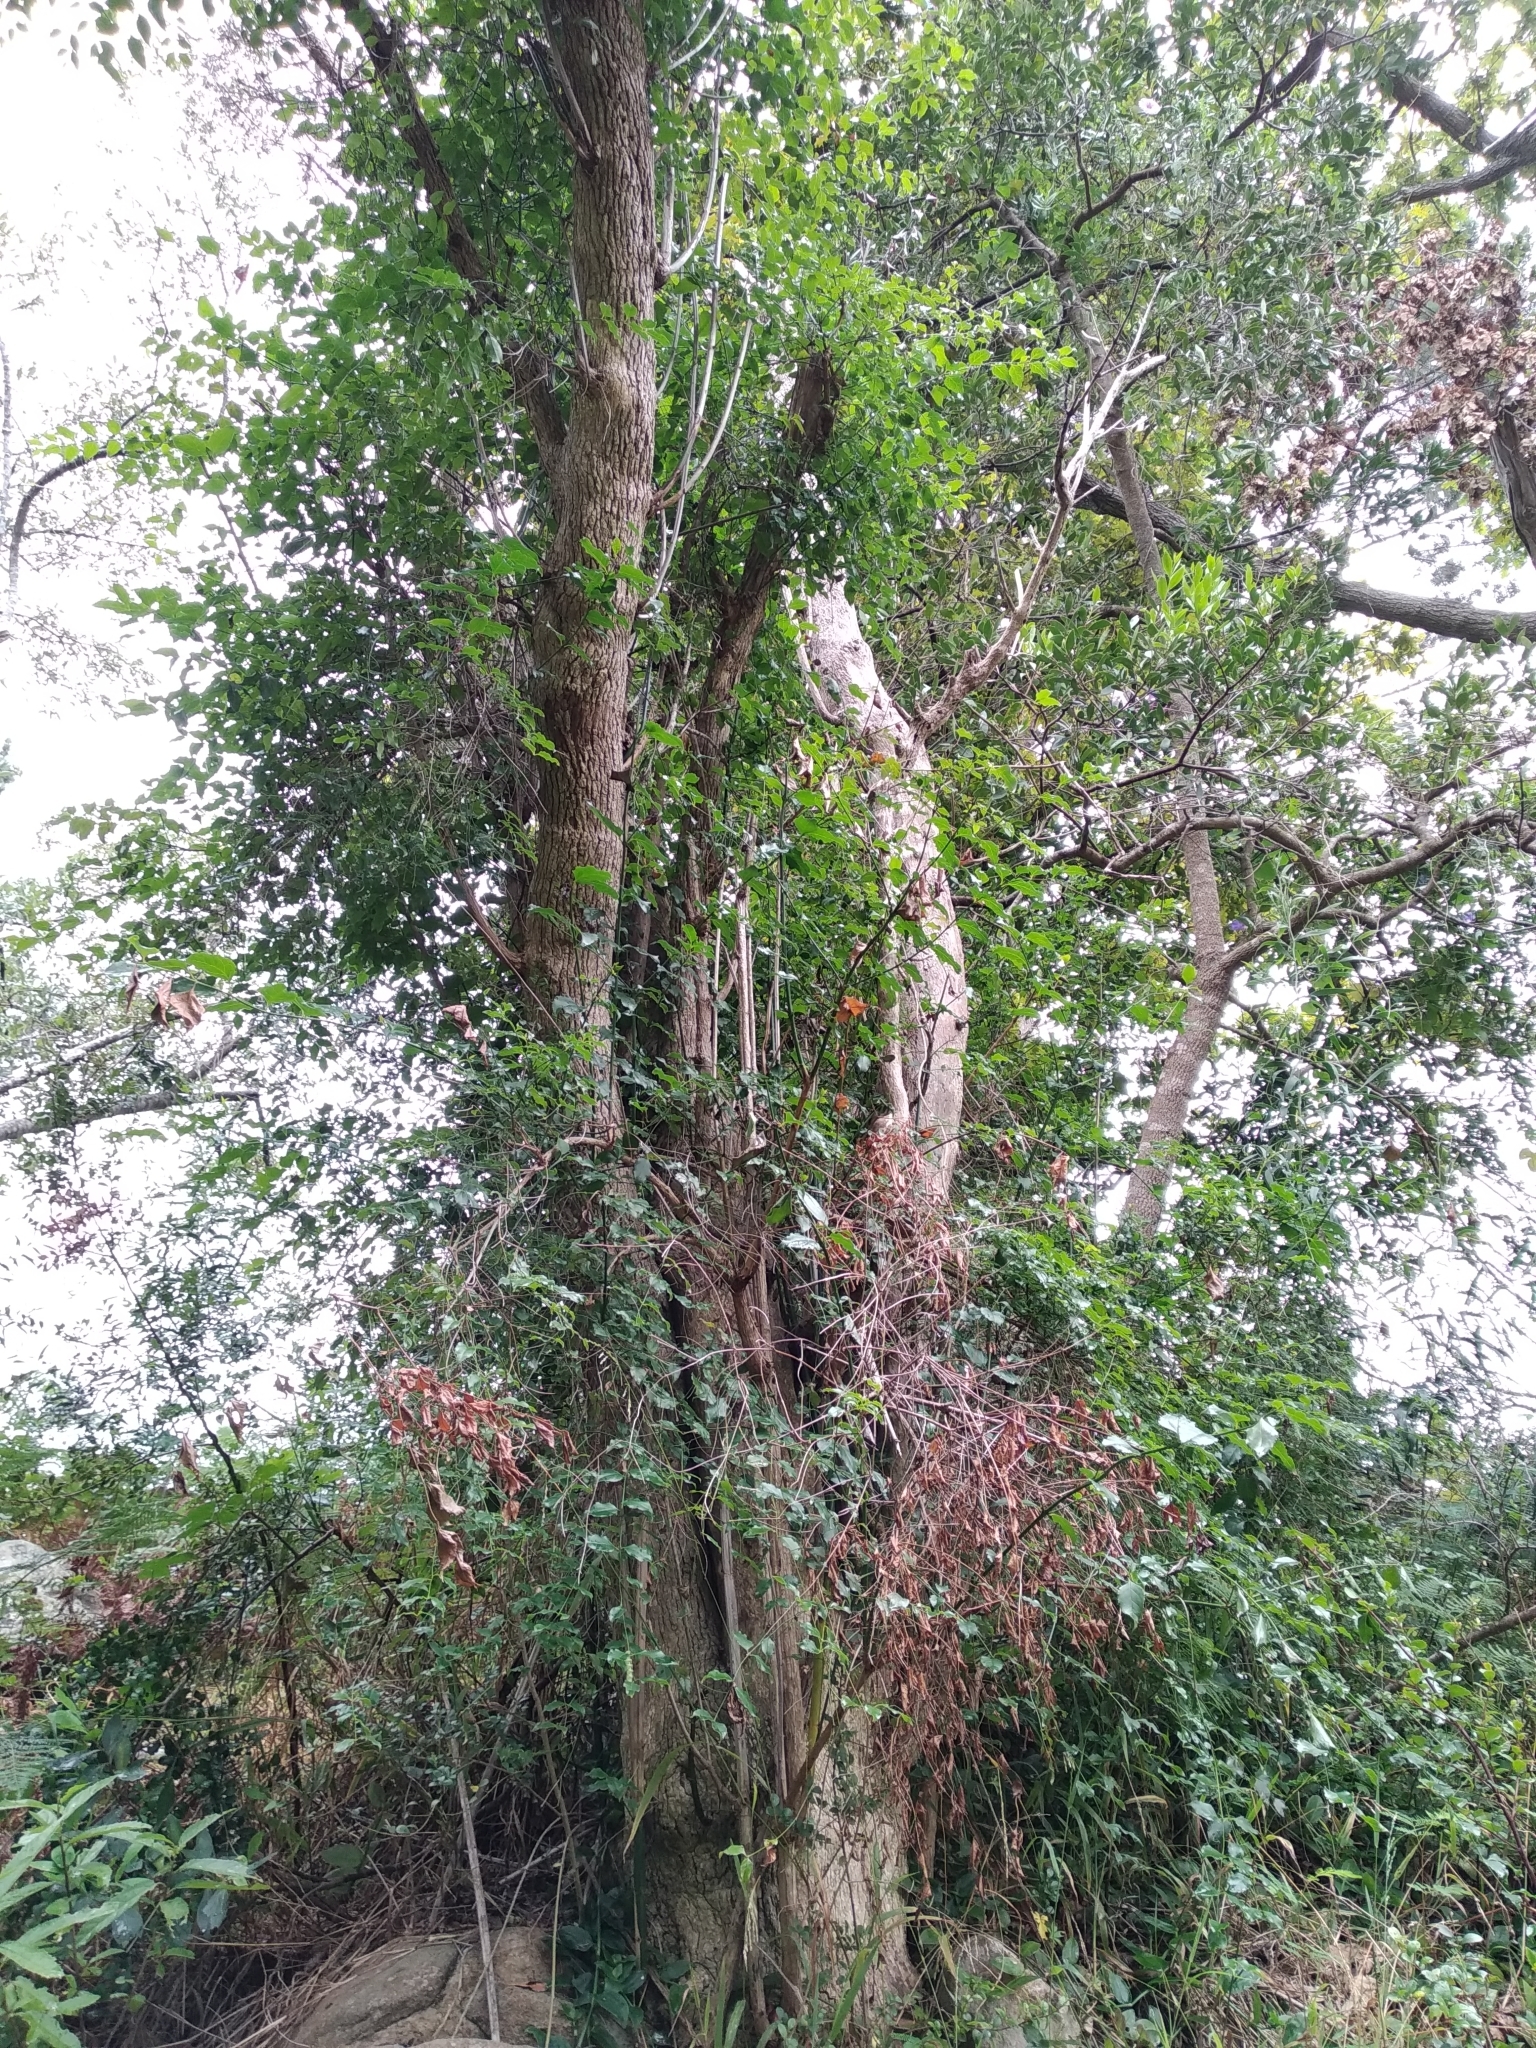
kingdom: Plantae
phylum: Tracheophyta
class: Magnoliopsida
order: Lamiales
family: Stilbaceae
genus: Halleria
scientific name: Halleria lucida
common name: Tree fuschia
